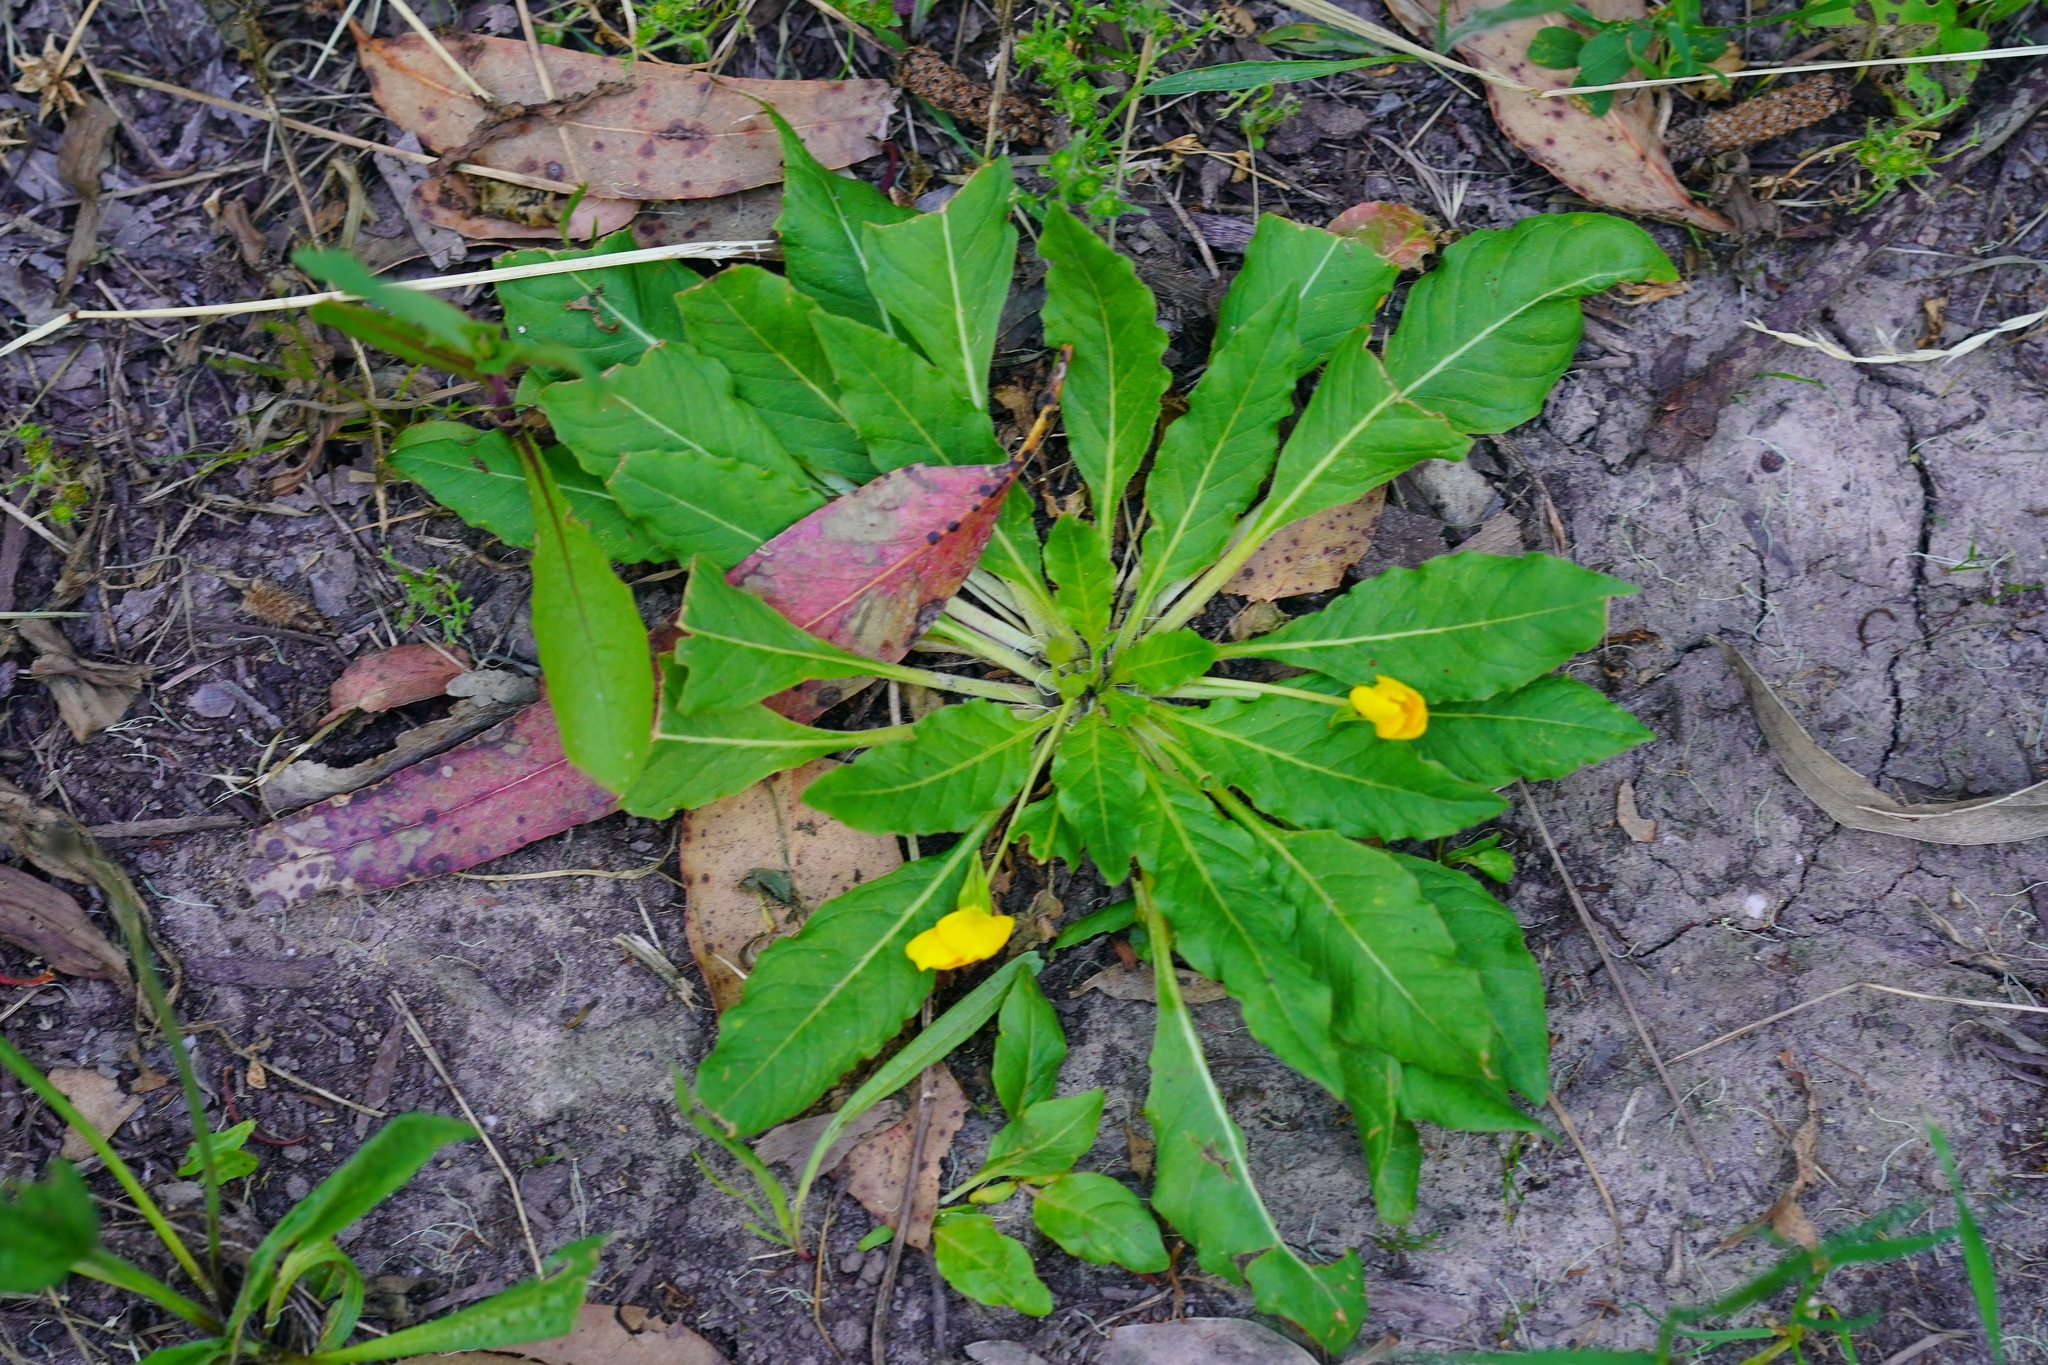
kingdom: Plantae
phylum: Tracheophyta
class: Magnoliopsida
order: Myrtales
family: Onagraceae
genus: Taraxia
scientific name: Taraxia ovata
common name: Goldeneggs
